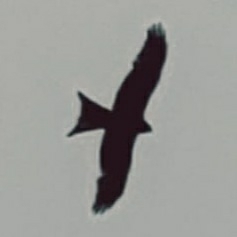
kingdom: Animalia
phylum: Chordata
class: Aves
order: Accipitriformes
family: Accipitridae
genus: Milvus
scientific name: Milvus migrans
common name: Black kite
